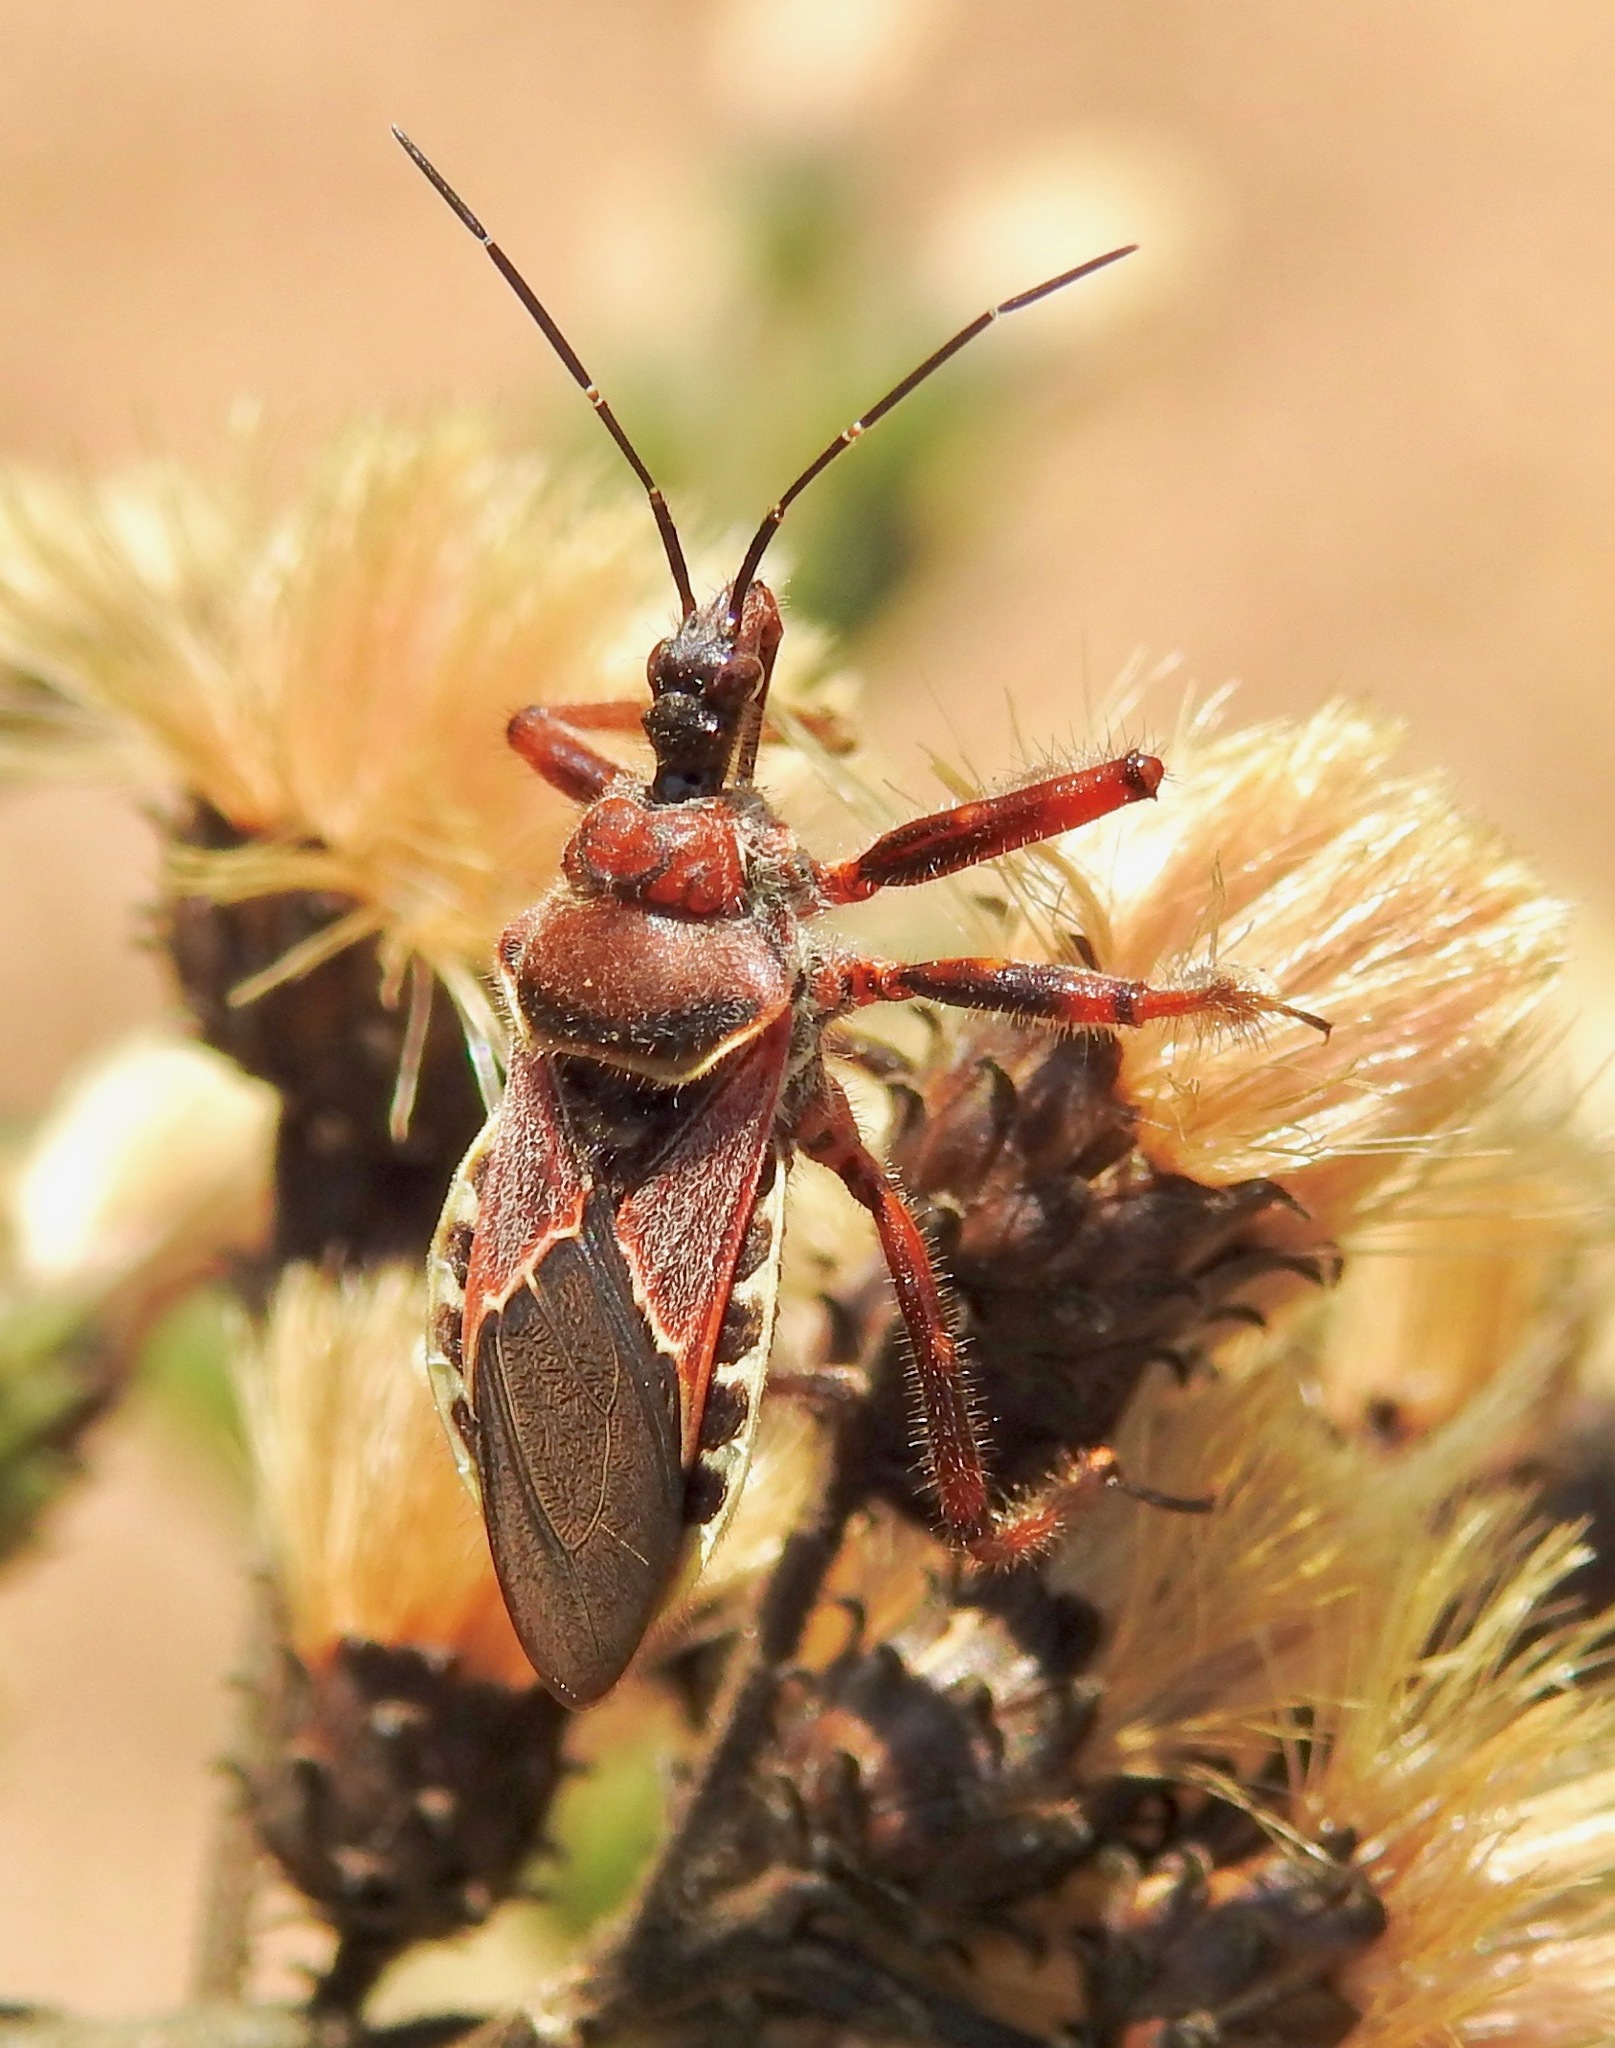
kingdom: Animalia
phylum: Arthropoda
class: Insecta
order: Hemiptera
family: Reduviidae
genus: Apiomerus
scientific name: Apiomerus spissipes
